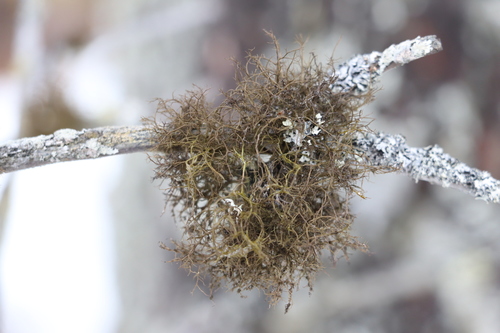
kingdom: Fungi
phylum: Ascomycota
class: Lecanoromycetes
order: Lecanorales
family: Parmeliaceae
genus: Bryoria
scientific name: Bryoria
